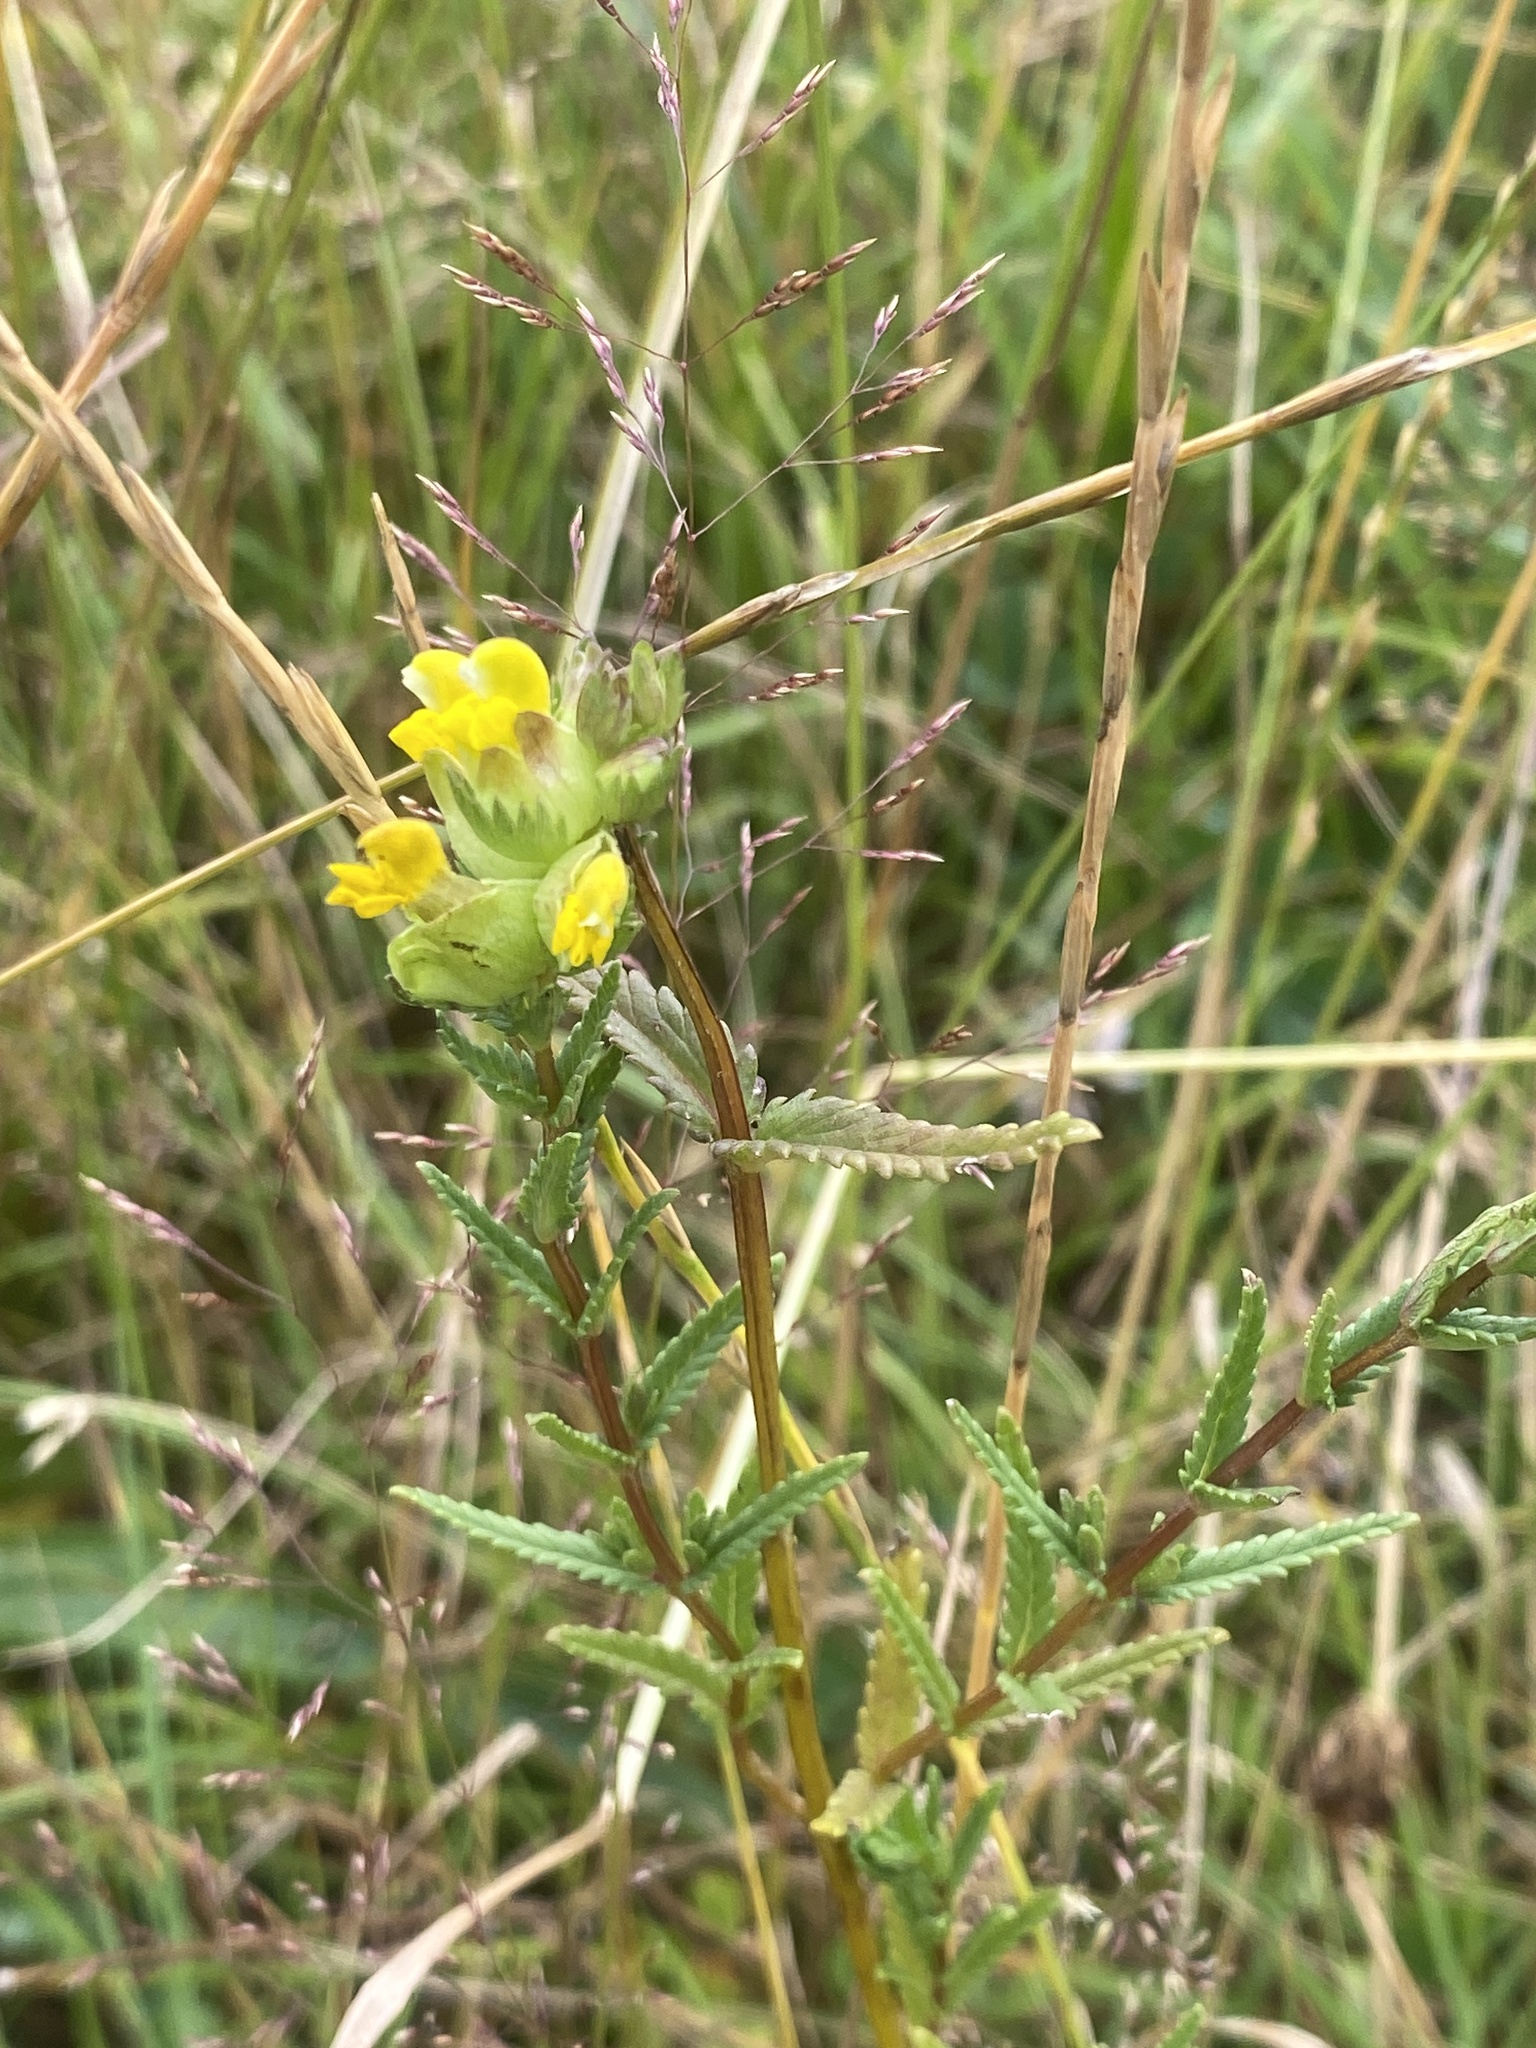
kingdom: Plantae
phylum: Tracheophyta
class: Magnoliopsida
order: Lamiales
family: Orobanchaceae
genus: Rhinanthus
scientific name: Rhinanthus minor
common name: Yellow-rattle
